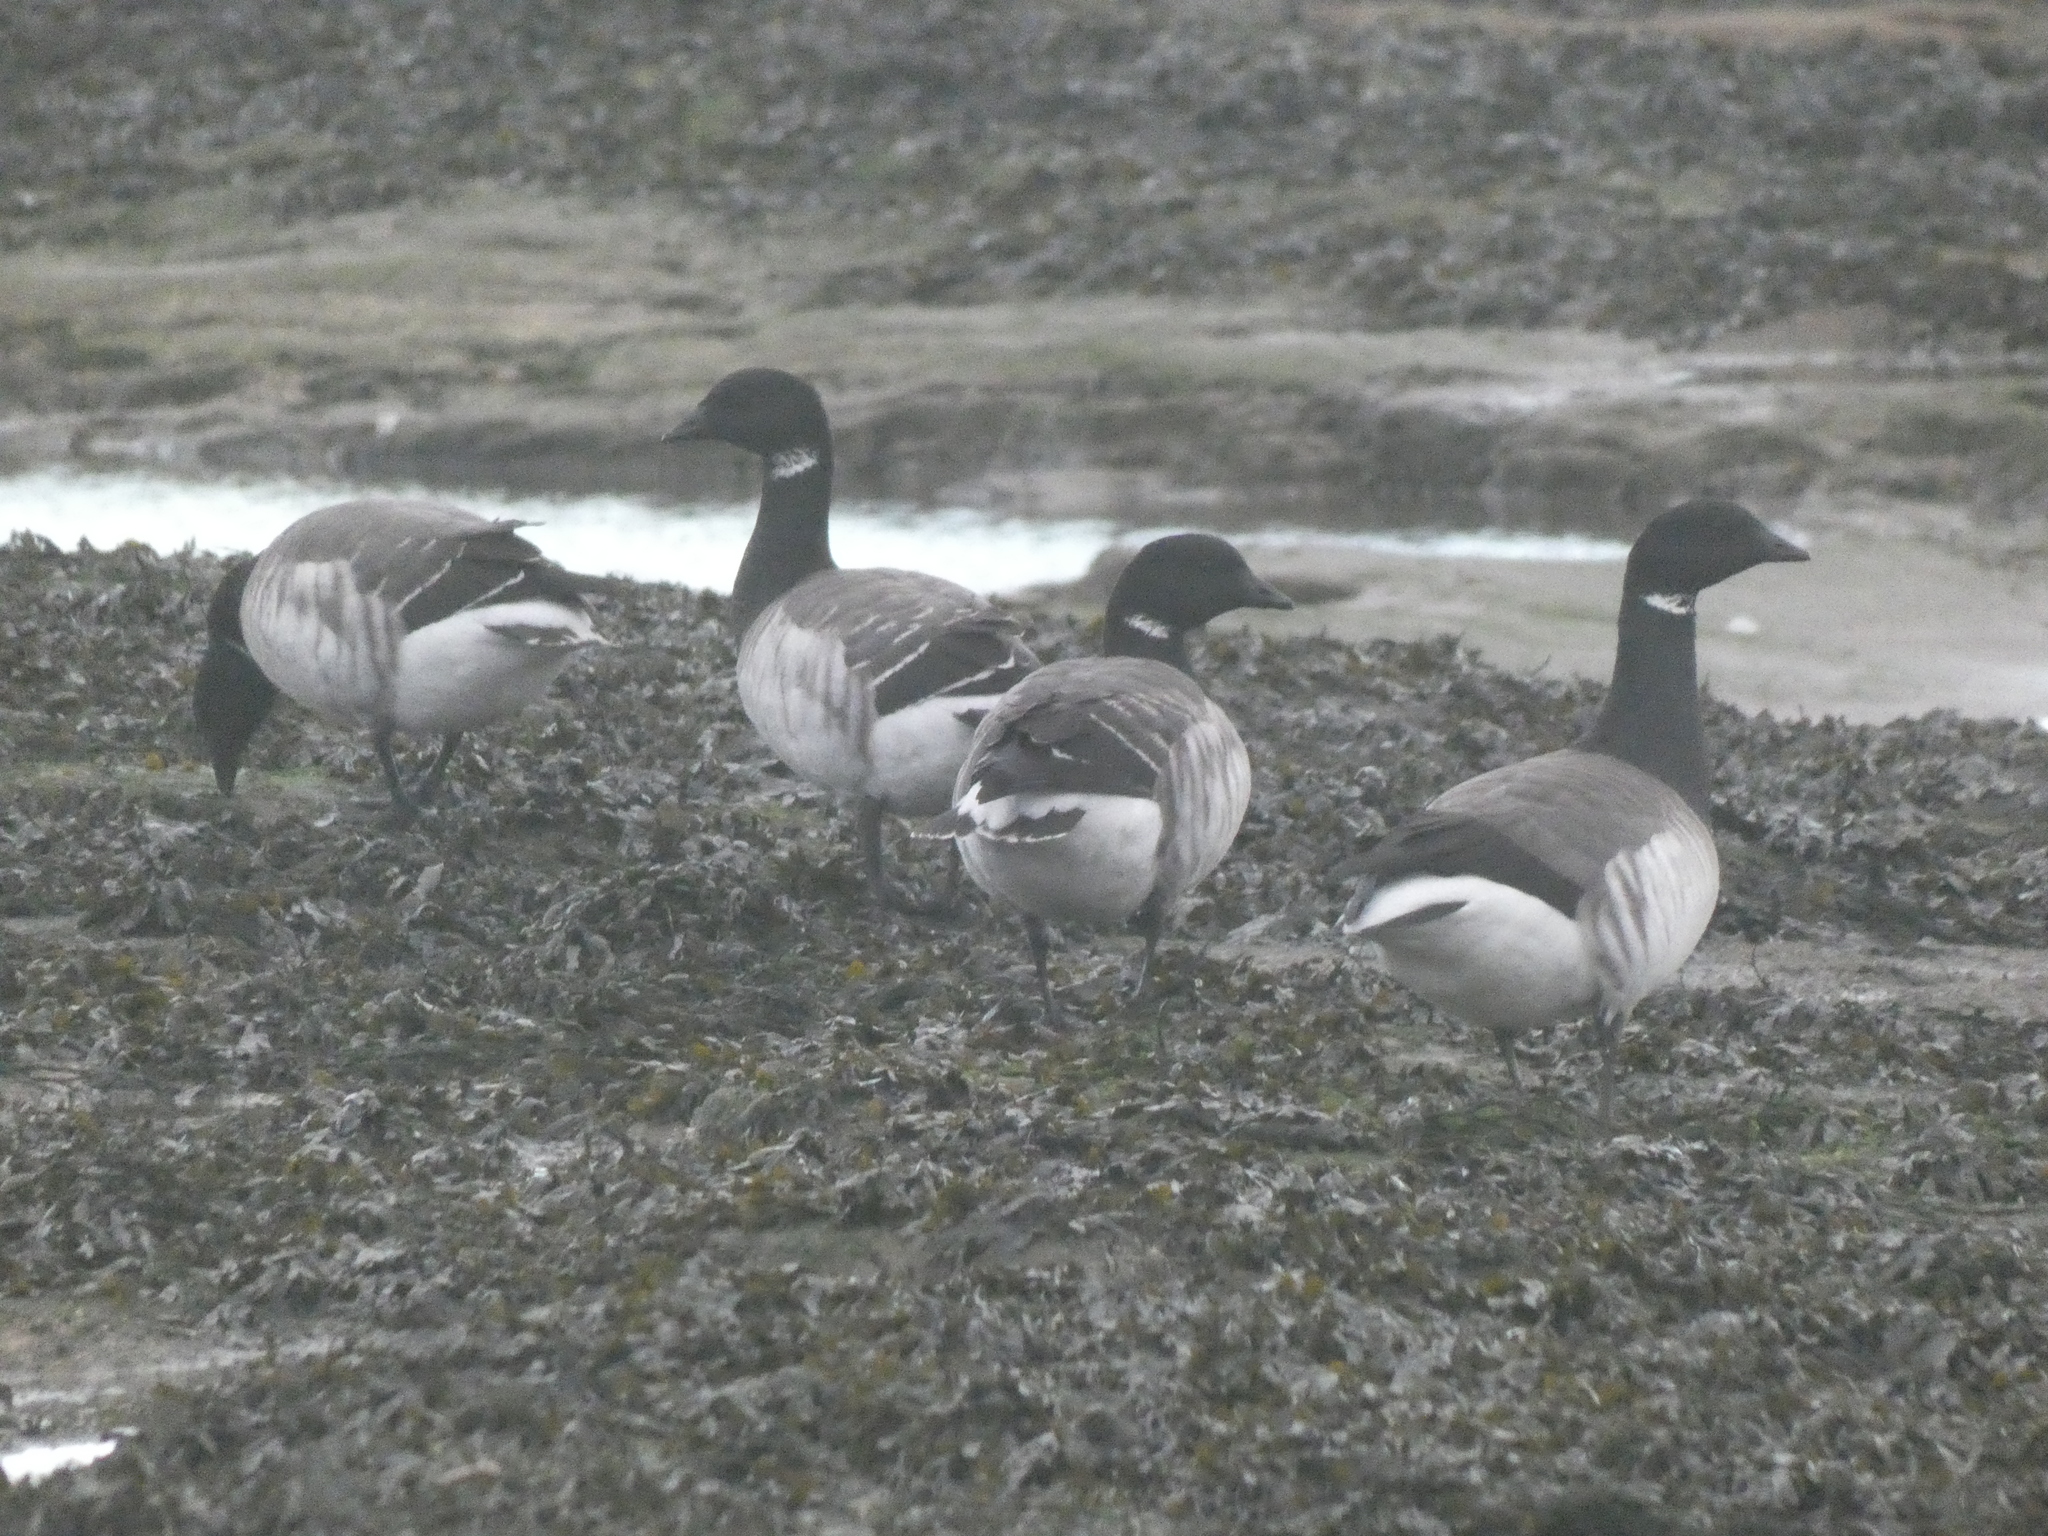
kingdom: Animalia
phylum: Chordata
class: Aves
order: Anseriformes
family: Anatidae
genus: Branta
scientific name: Branta bernicla
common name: Brant goose
